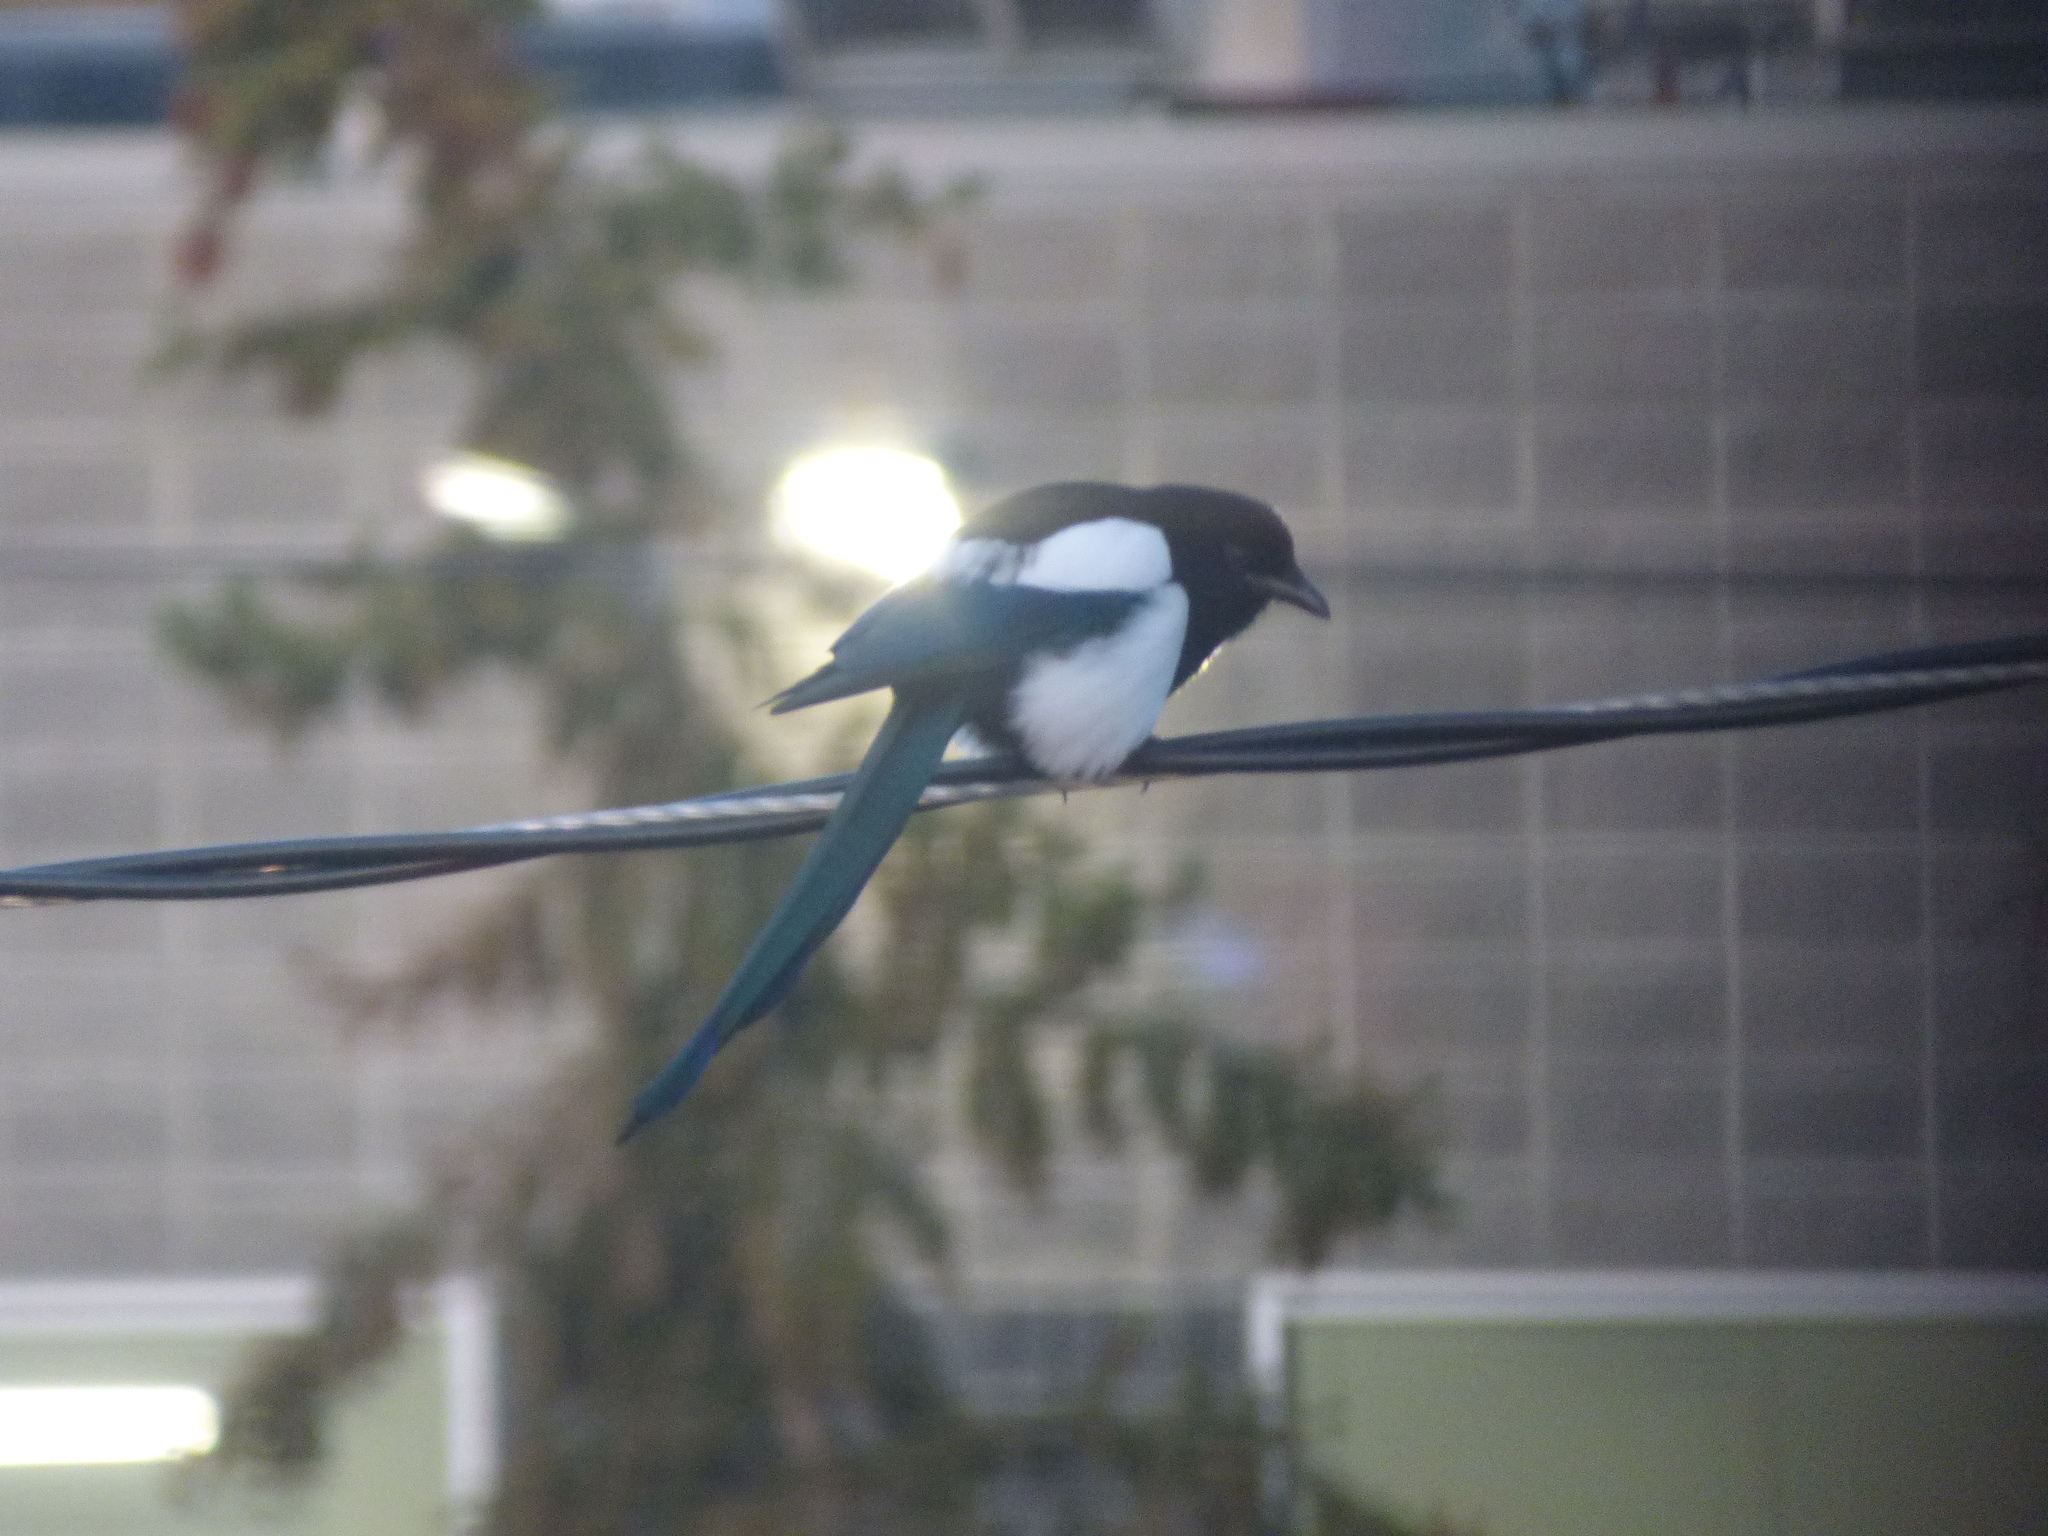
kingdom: Animalia
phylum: Chordata
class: Aves
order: Passeriformes
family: Corvidae
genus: Pica
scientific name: Pica hudsonia
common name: Black-billed magpie
